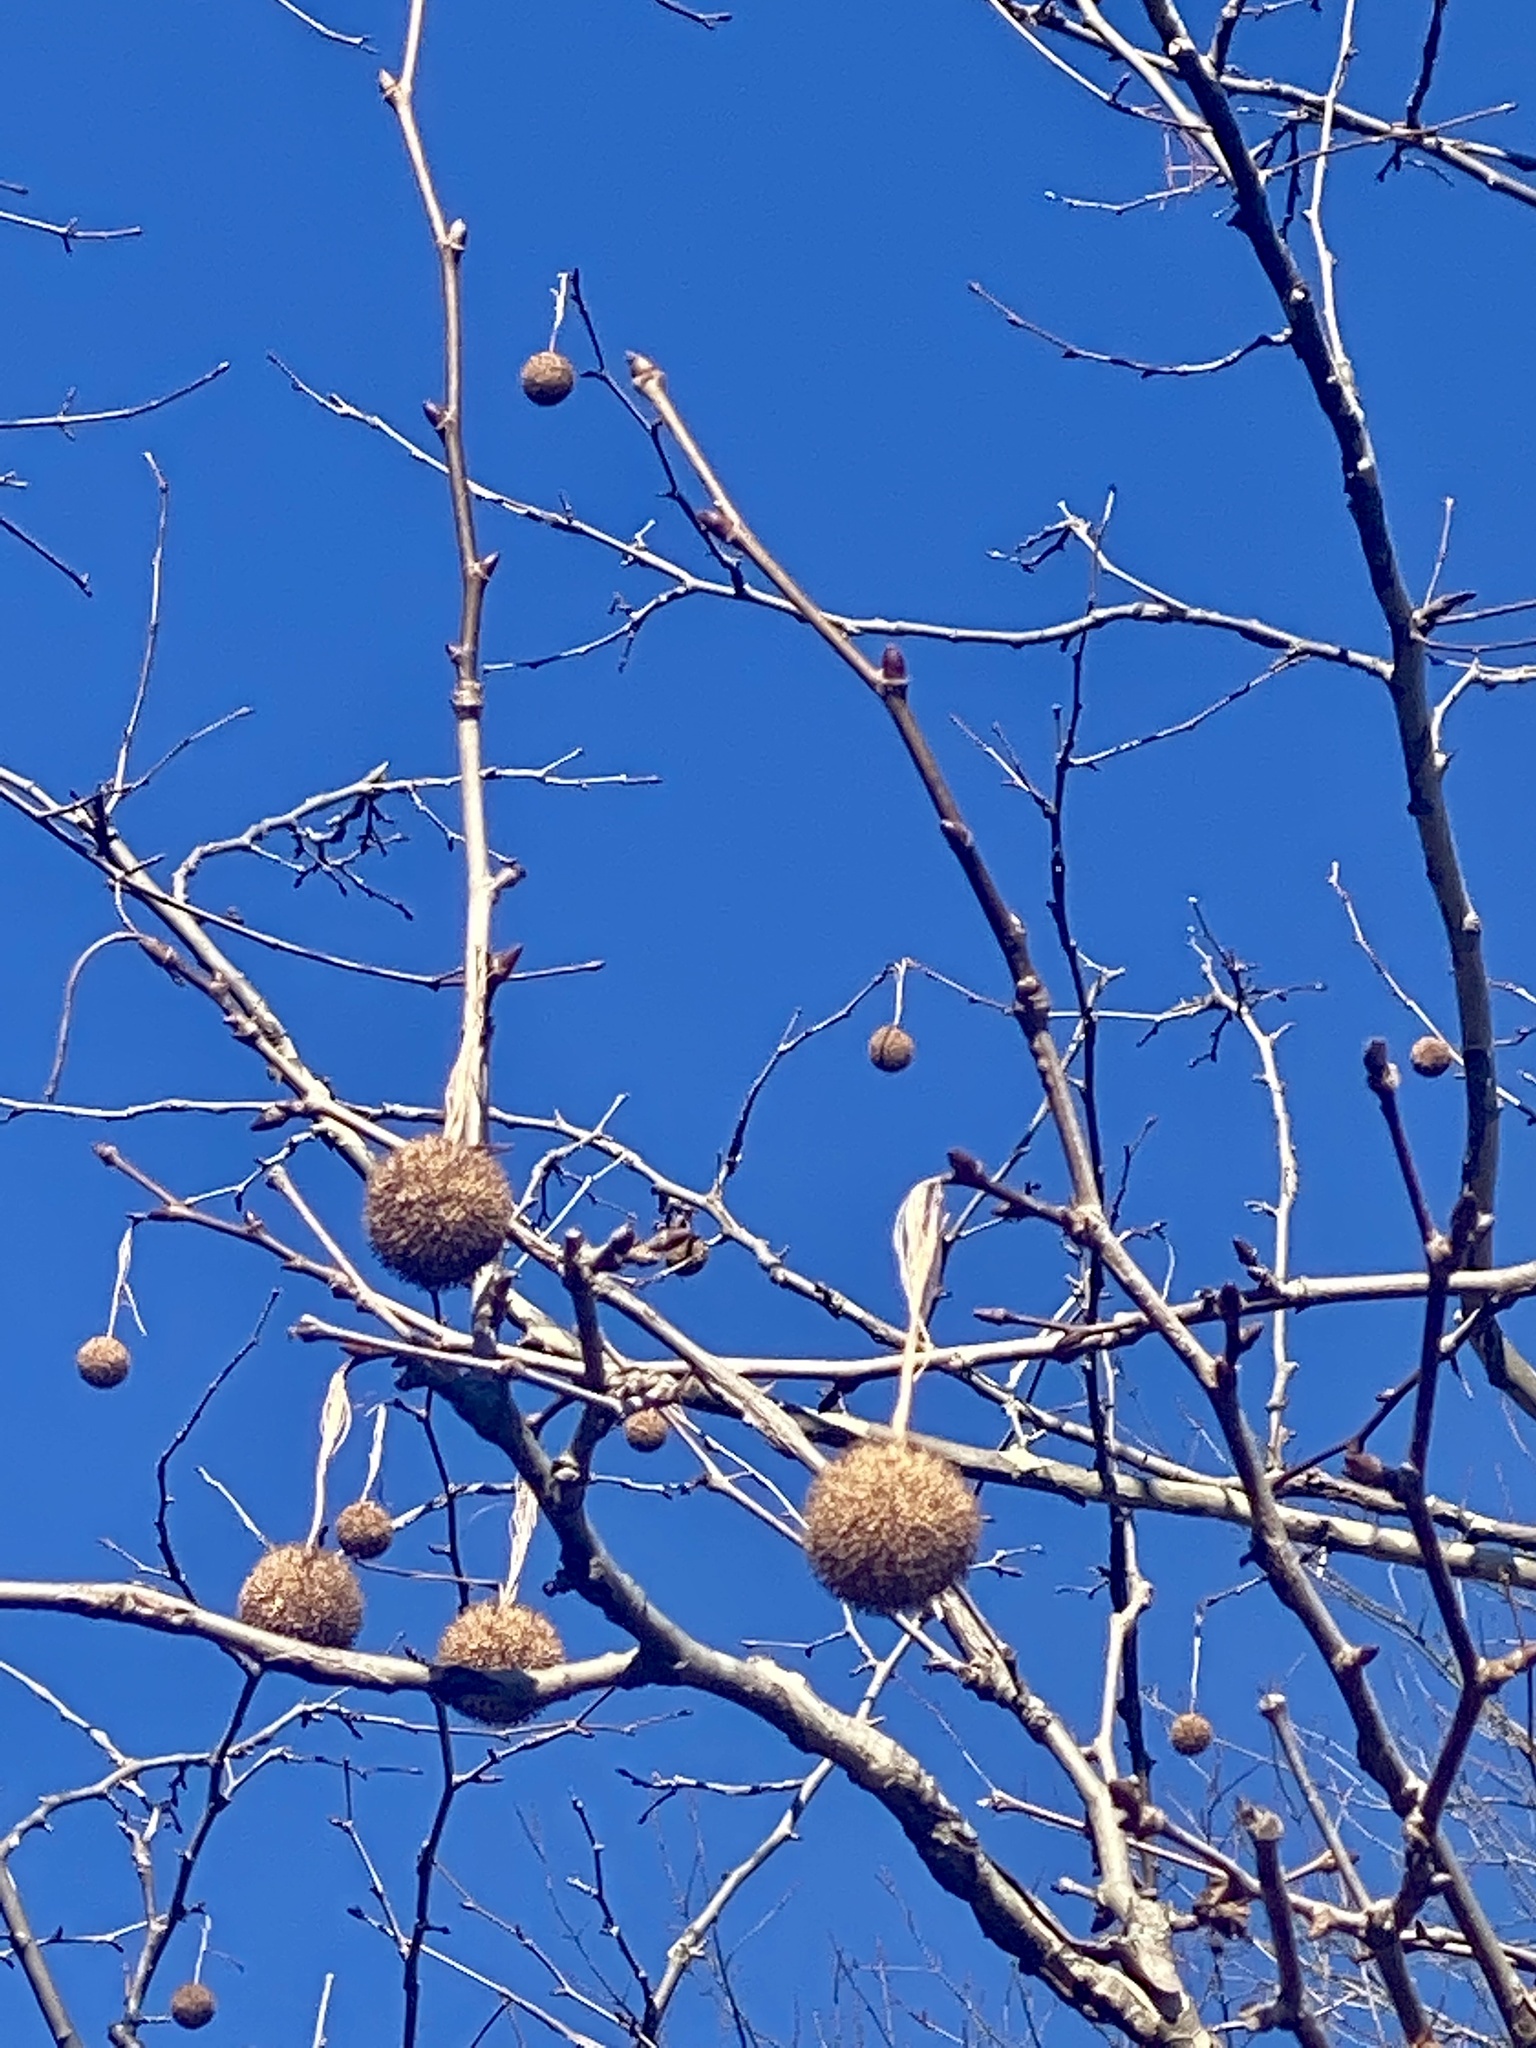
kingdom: Plantae
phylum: Tracheophyta
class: Magnoliopsida
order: Proteales
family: Platanaceae
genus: Platanus
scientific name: Platanus occidentalis
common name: American sycamore
